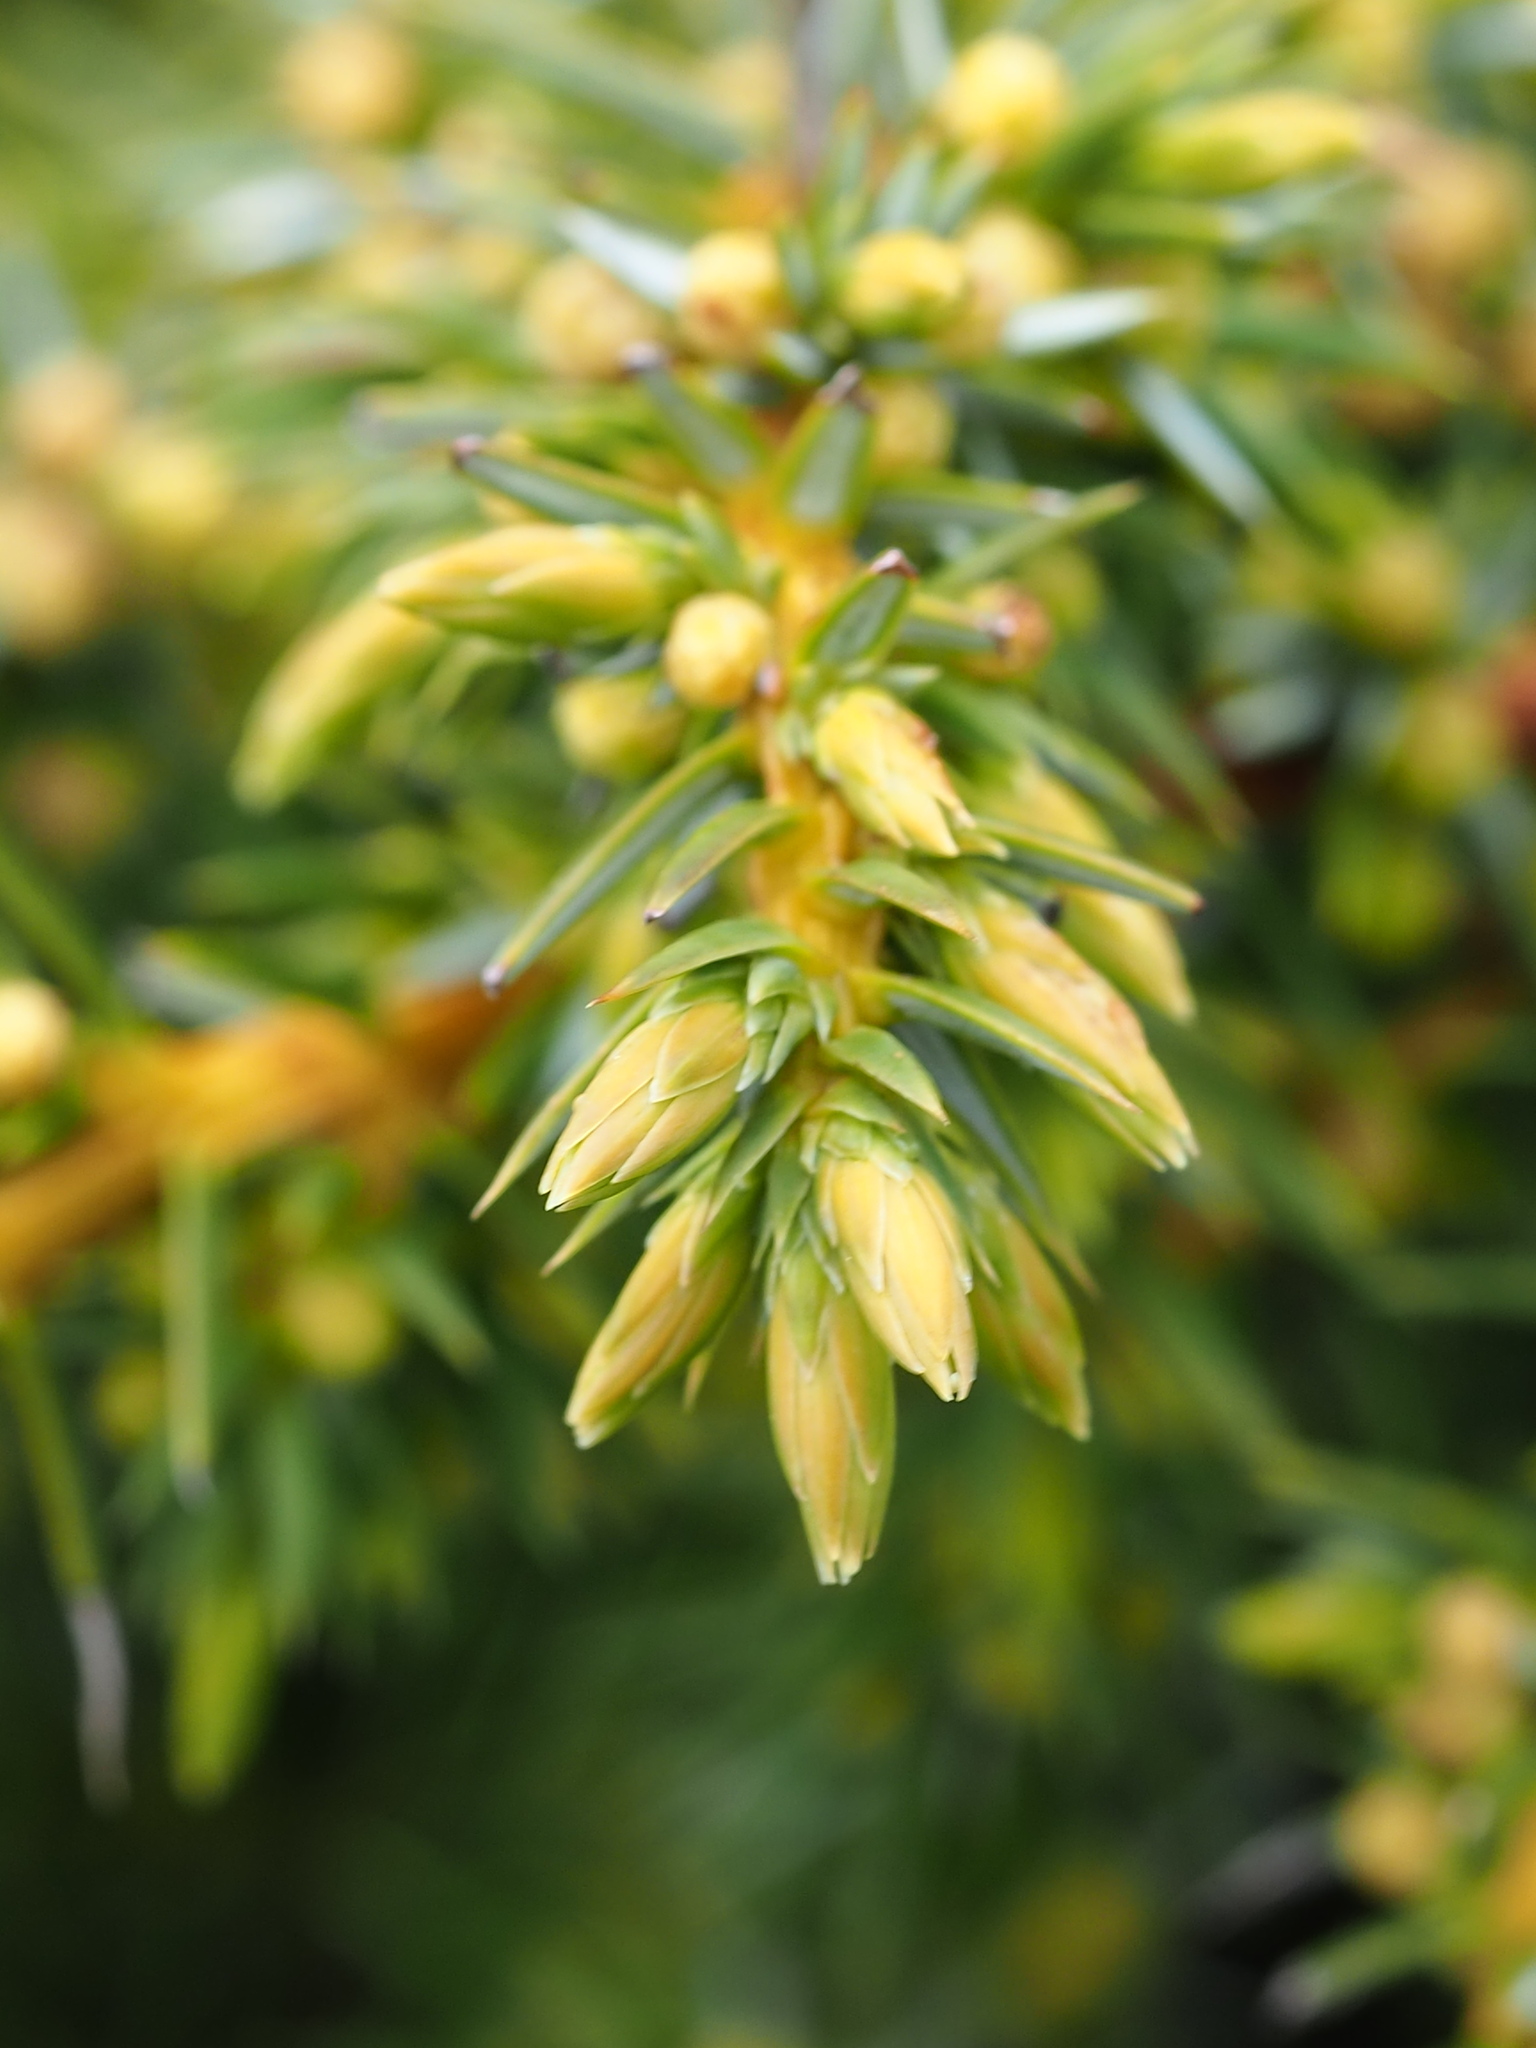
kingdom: Plantae
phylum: Tracheophyta
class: Pinopsida
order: Pinales
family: Cupressaceae
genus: Juniperus
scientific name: Juniperus formosana
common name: Formosan juniper
